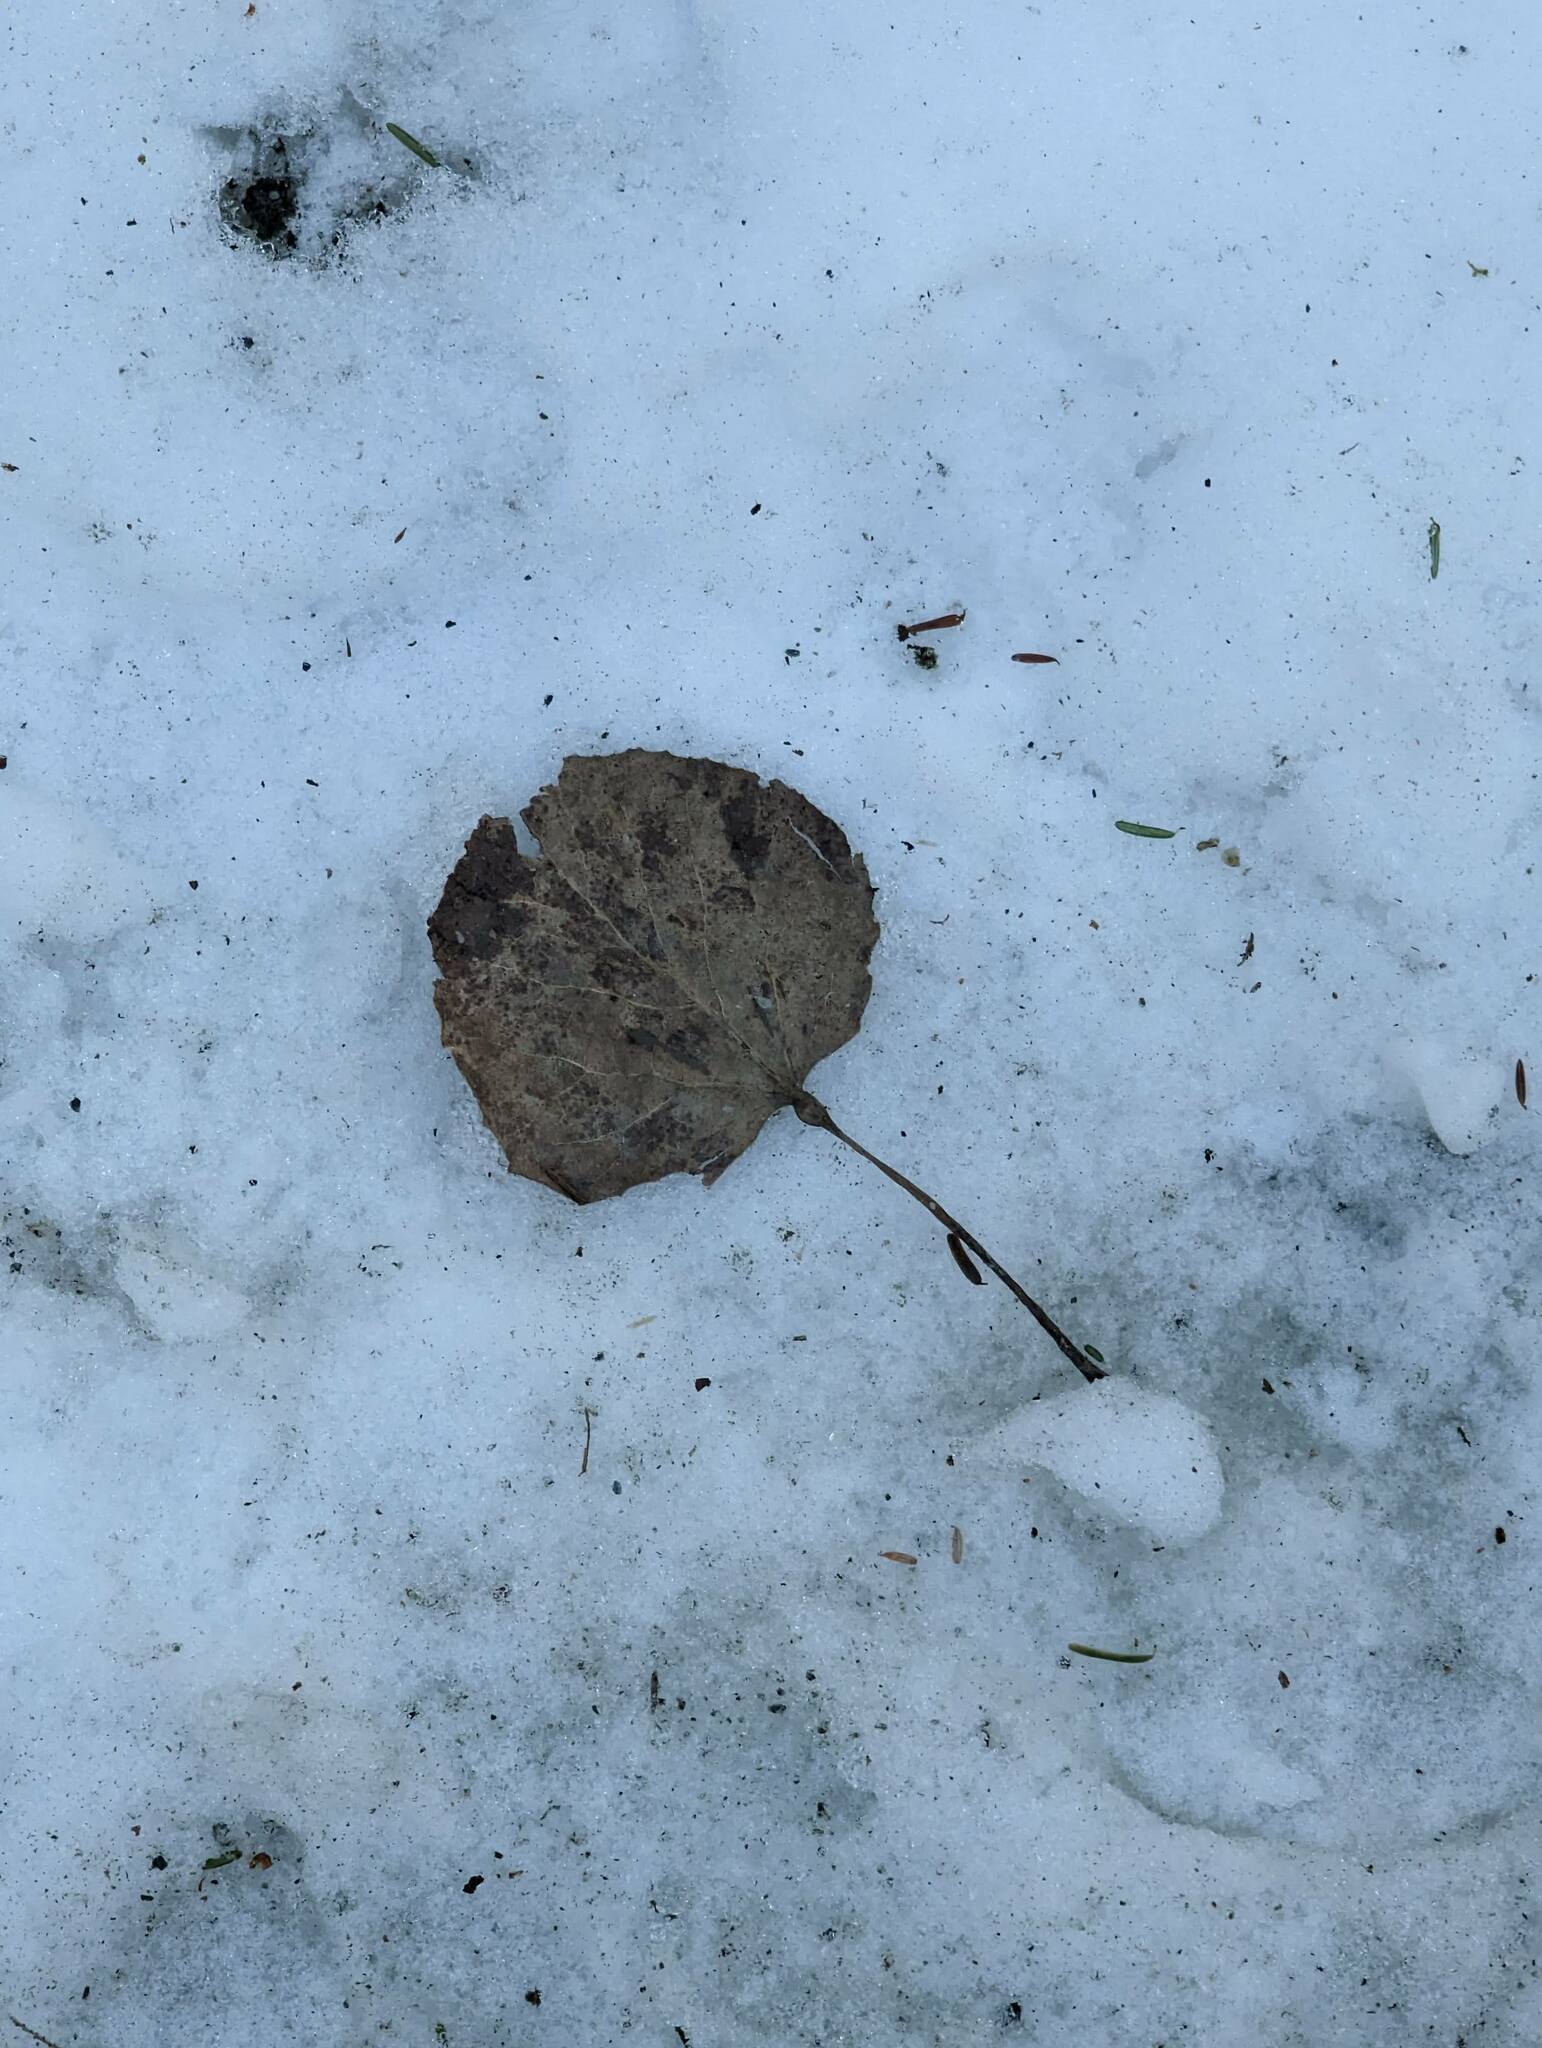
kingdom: Plantae
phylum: Tracheophyta
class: Magnoliopsida
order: Malpighiales
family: Salicaceae
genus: Populus
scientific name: Populus tremuloides
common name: Quaking aspen
